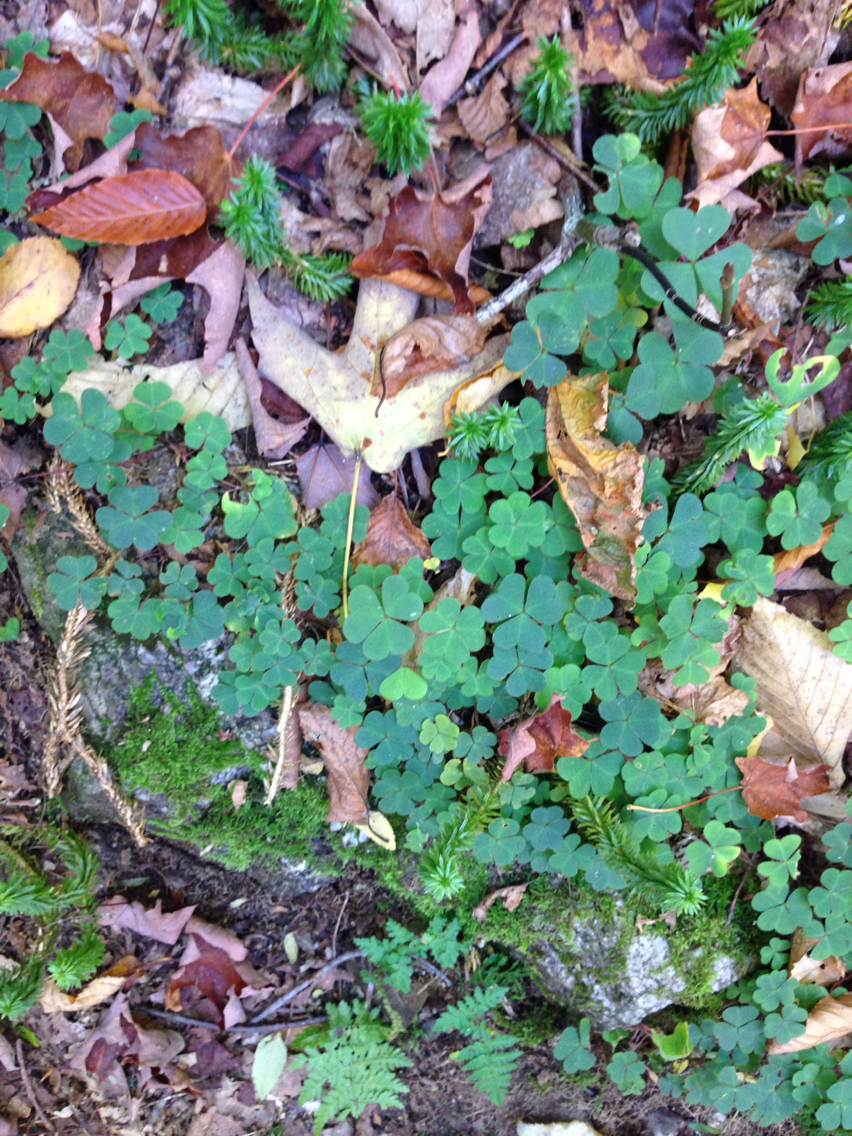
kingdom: Plantae
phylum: Tracheophyta
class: Magnoliopsida
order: Oxalidales
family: Oxalidaceae
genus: Oxalis
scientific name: Oxalis montana
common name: American wood-sorrel
